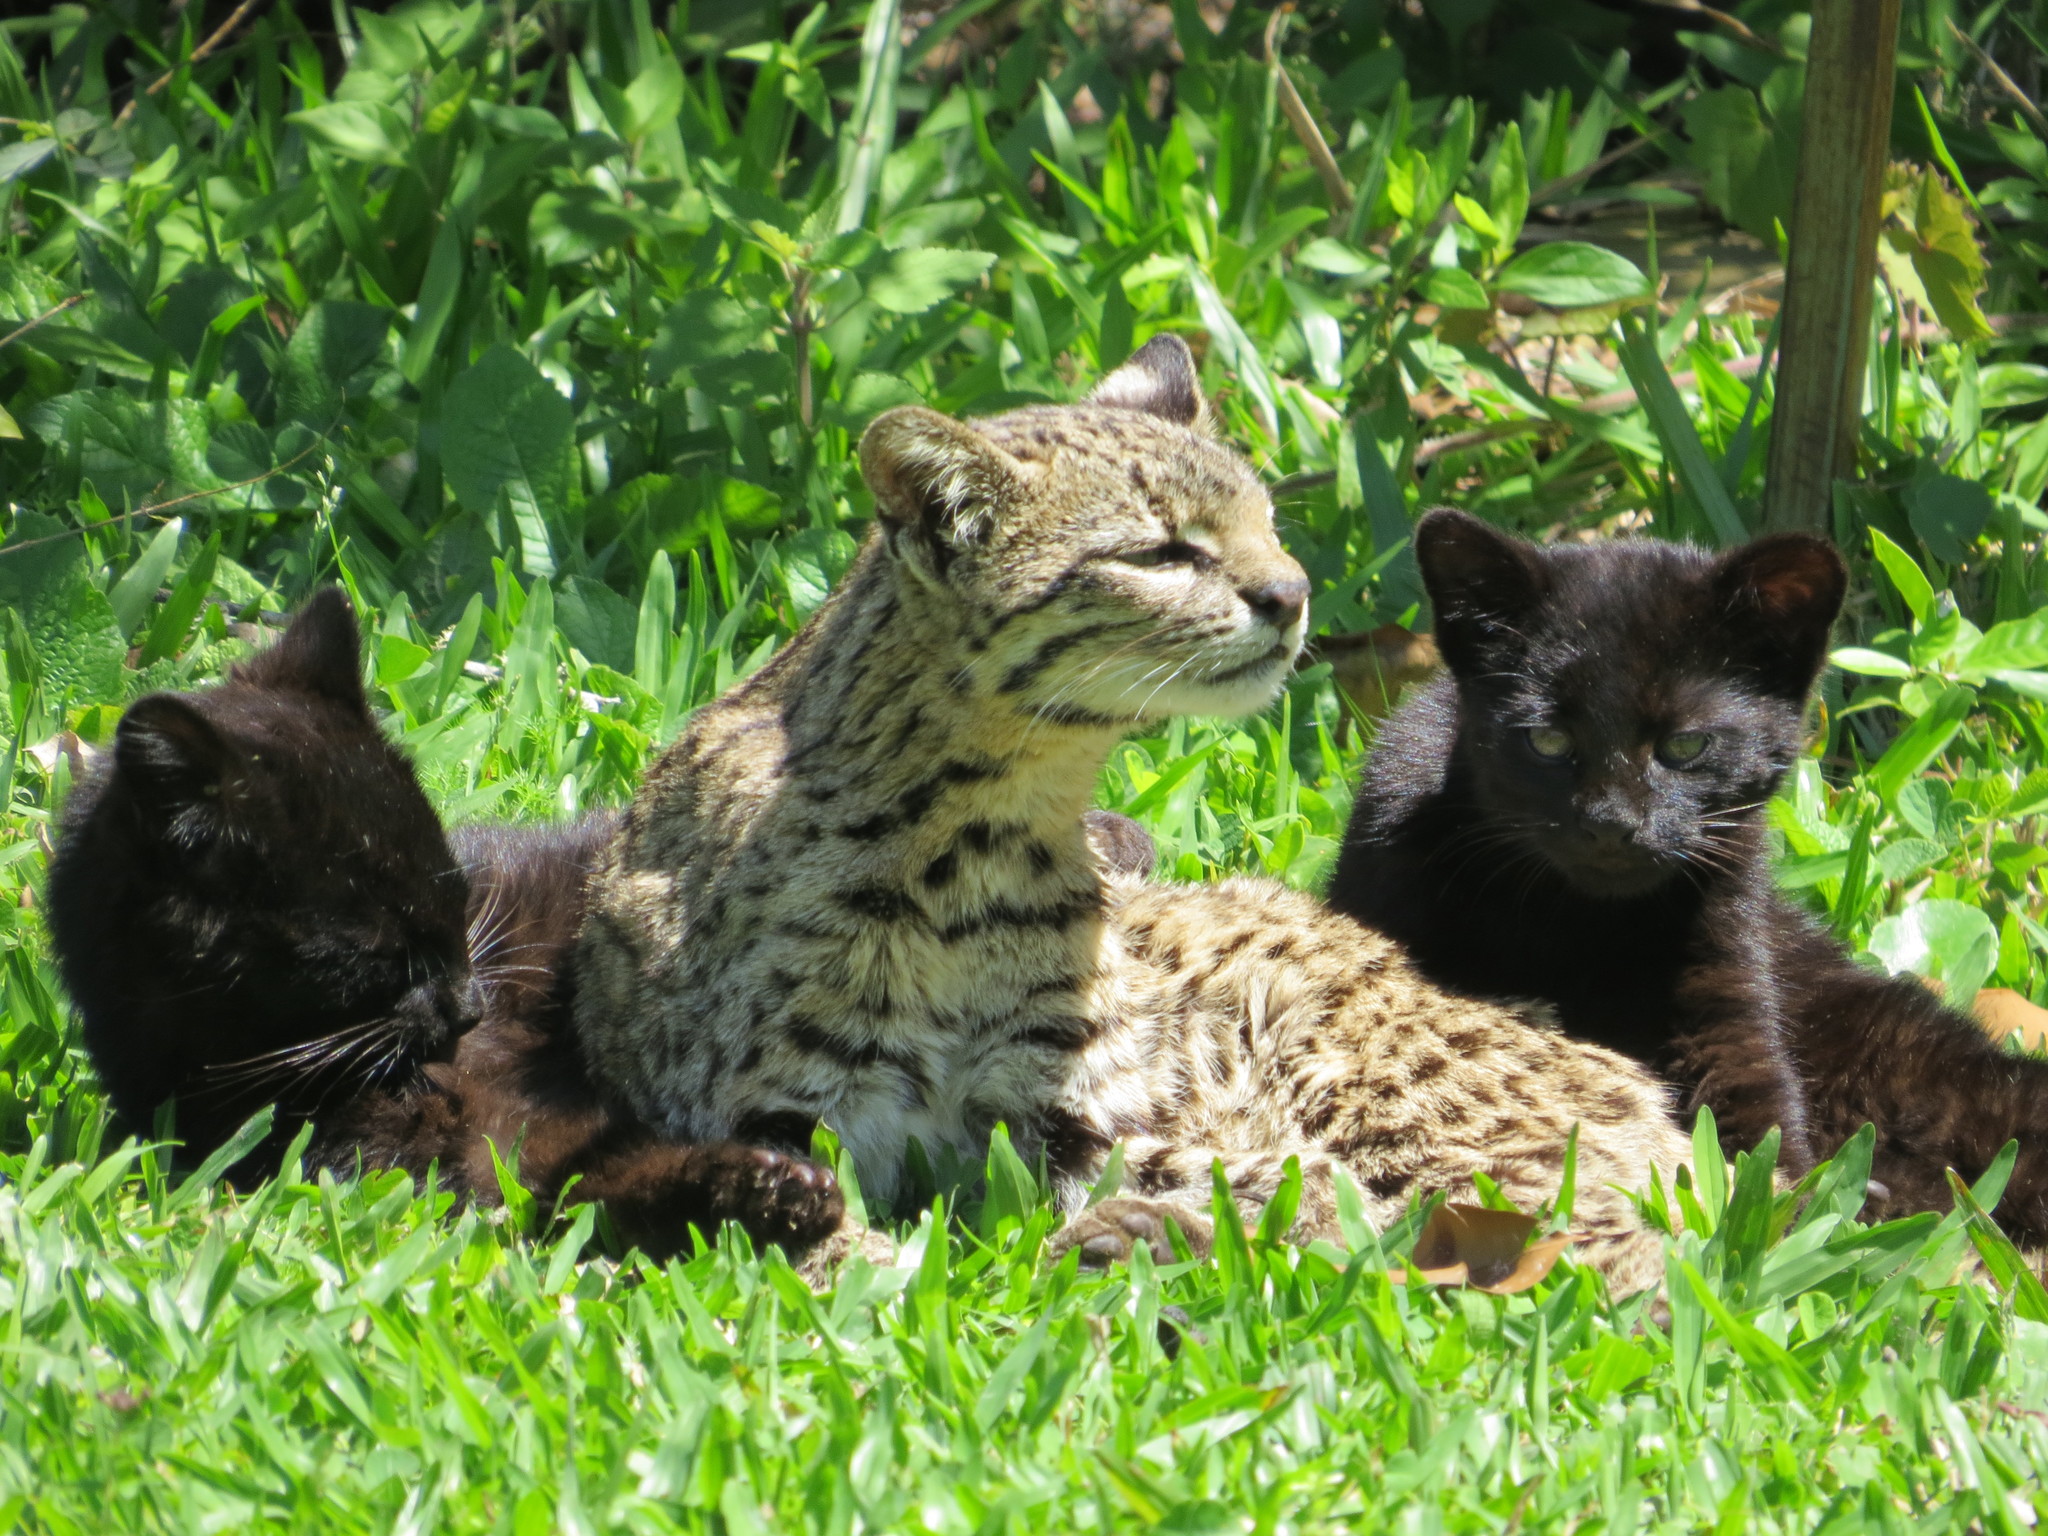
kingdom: Animalia
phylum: Chordata
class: Mammalia
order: Carnivora
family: Felidae
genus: Leopardus
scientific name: Leopardus geoffroyi
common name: Geoffroy's cat
